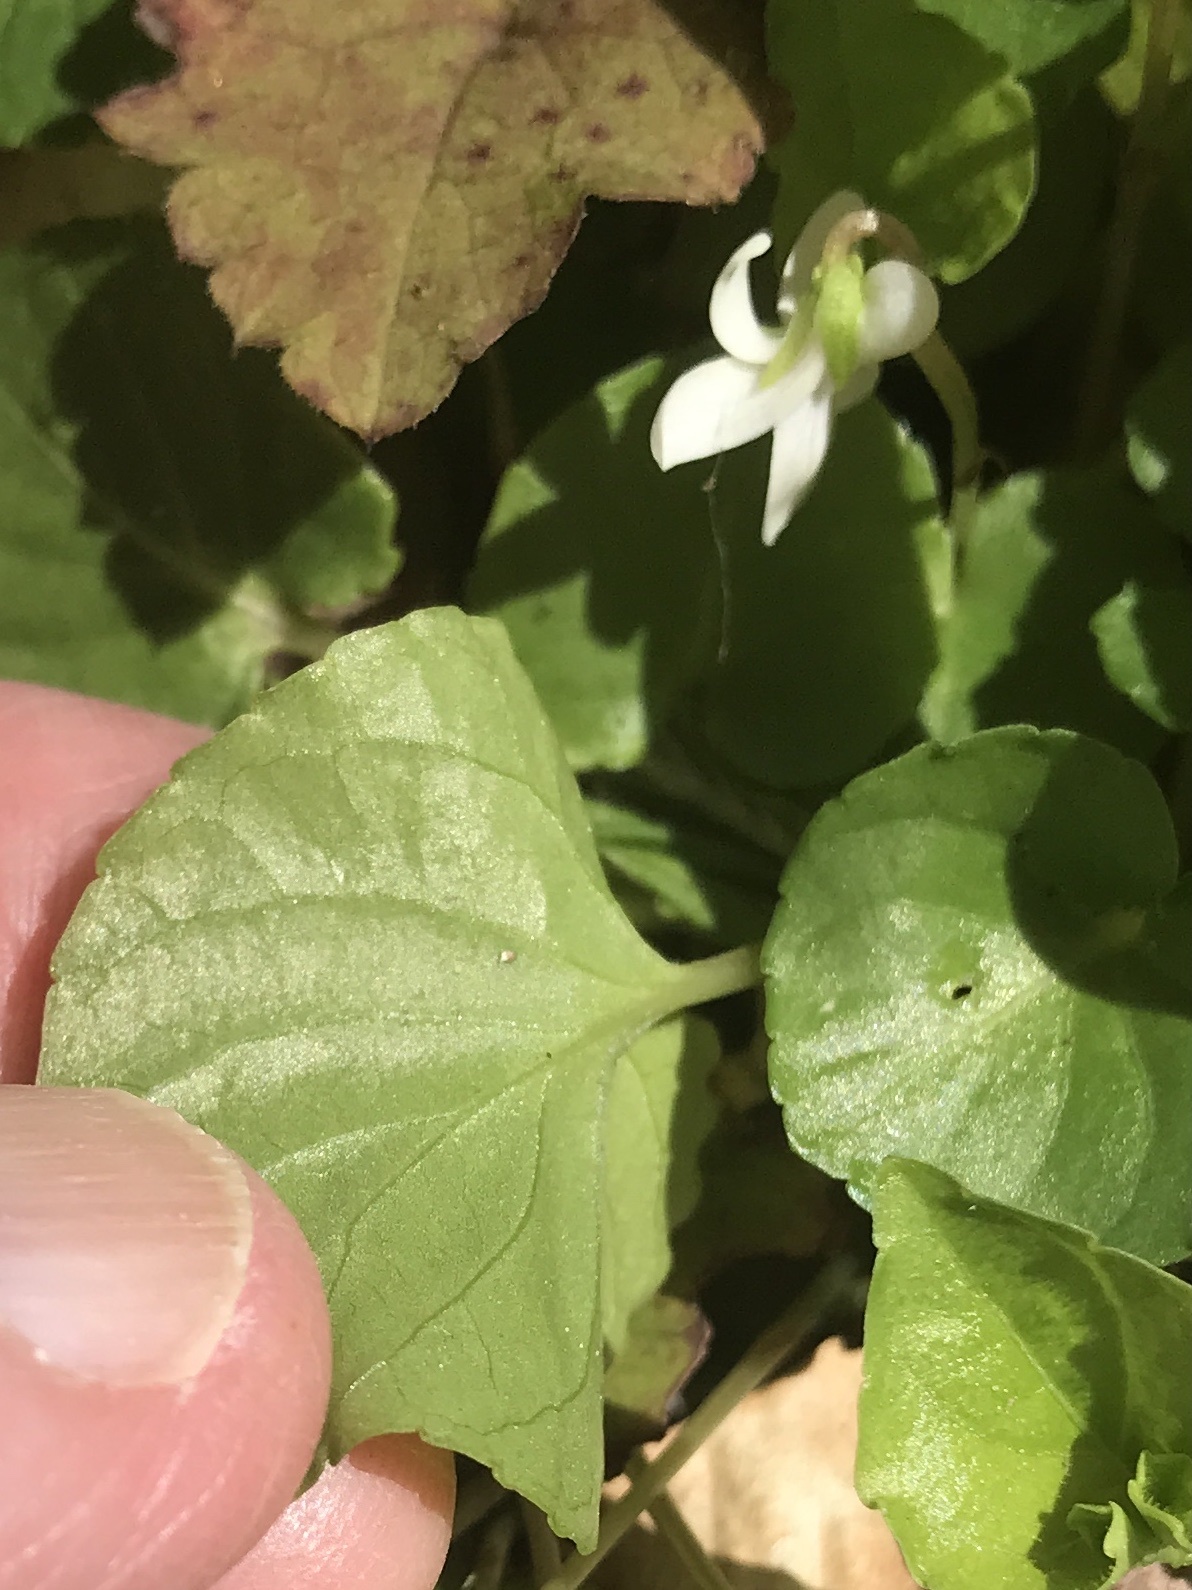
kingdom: Plantae
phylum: Tracheophyta
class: Magnoliopsida
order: Malpighiales
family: Violaceae
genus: Viola
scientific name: Viola blanda
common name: Sweet white violet
